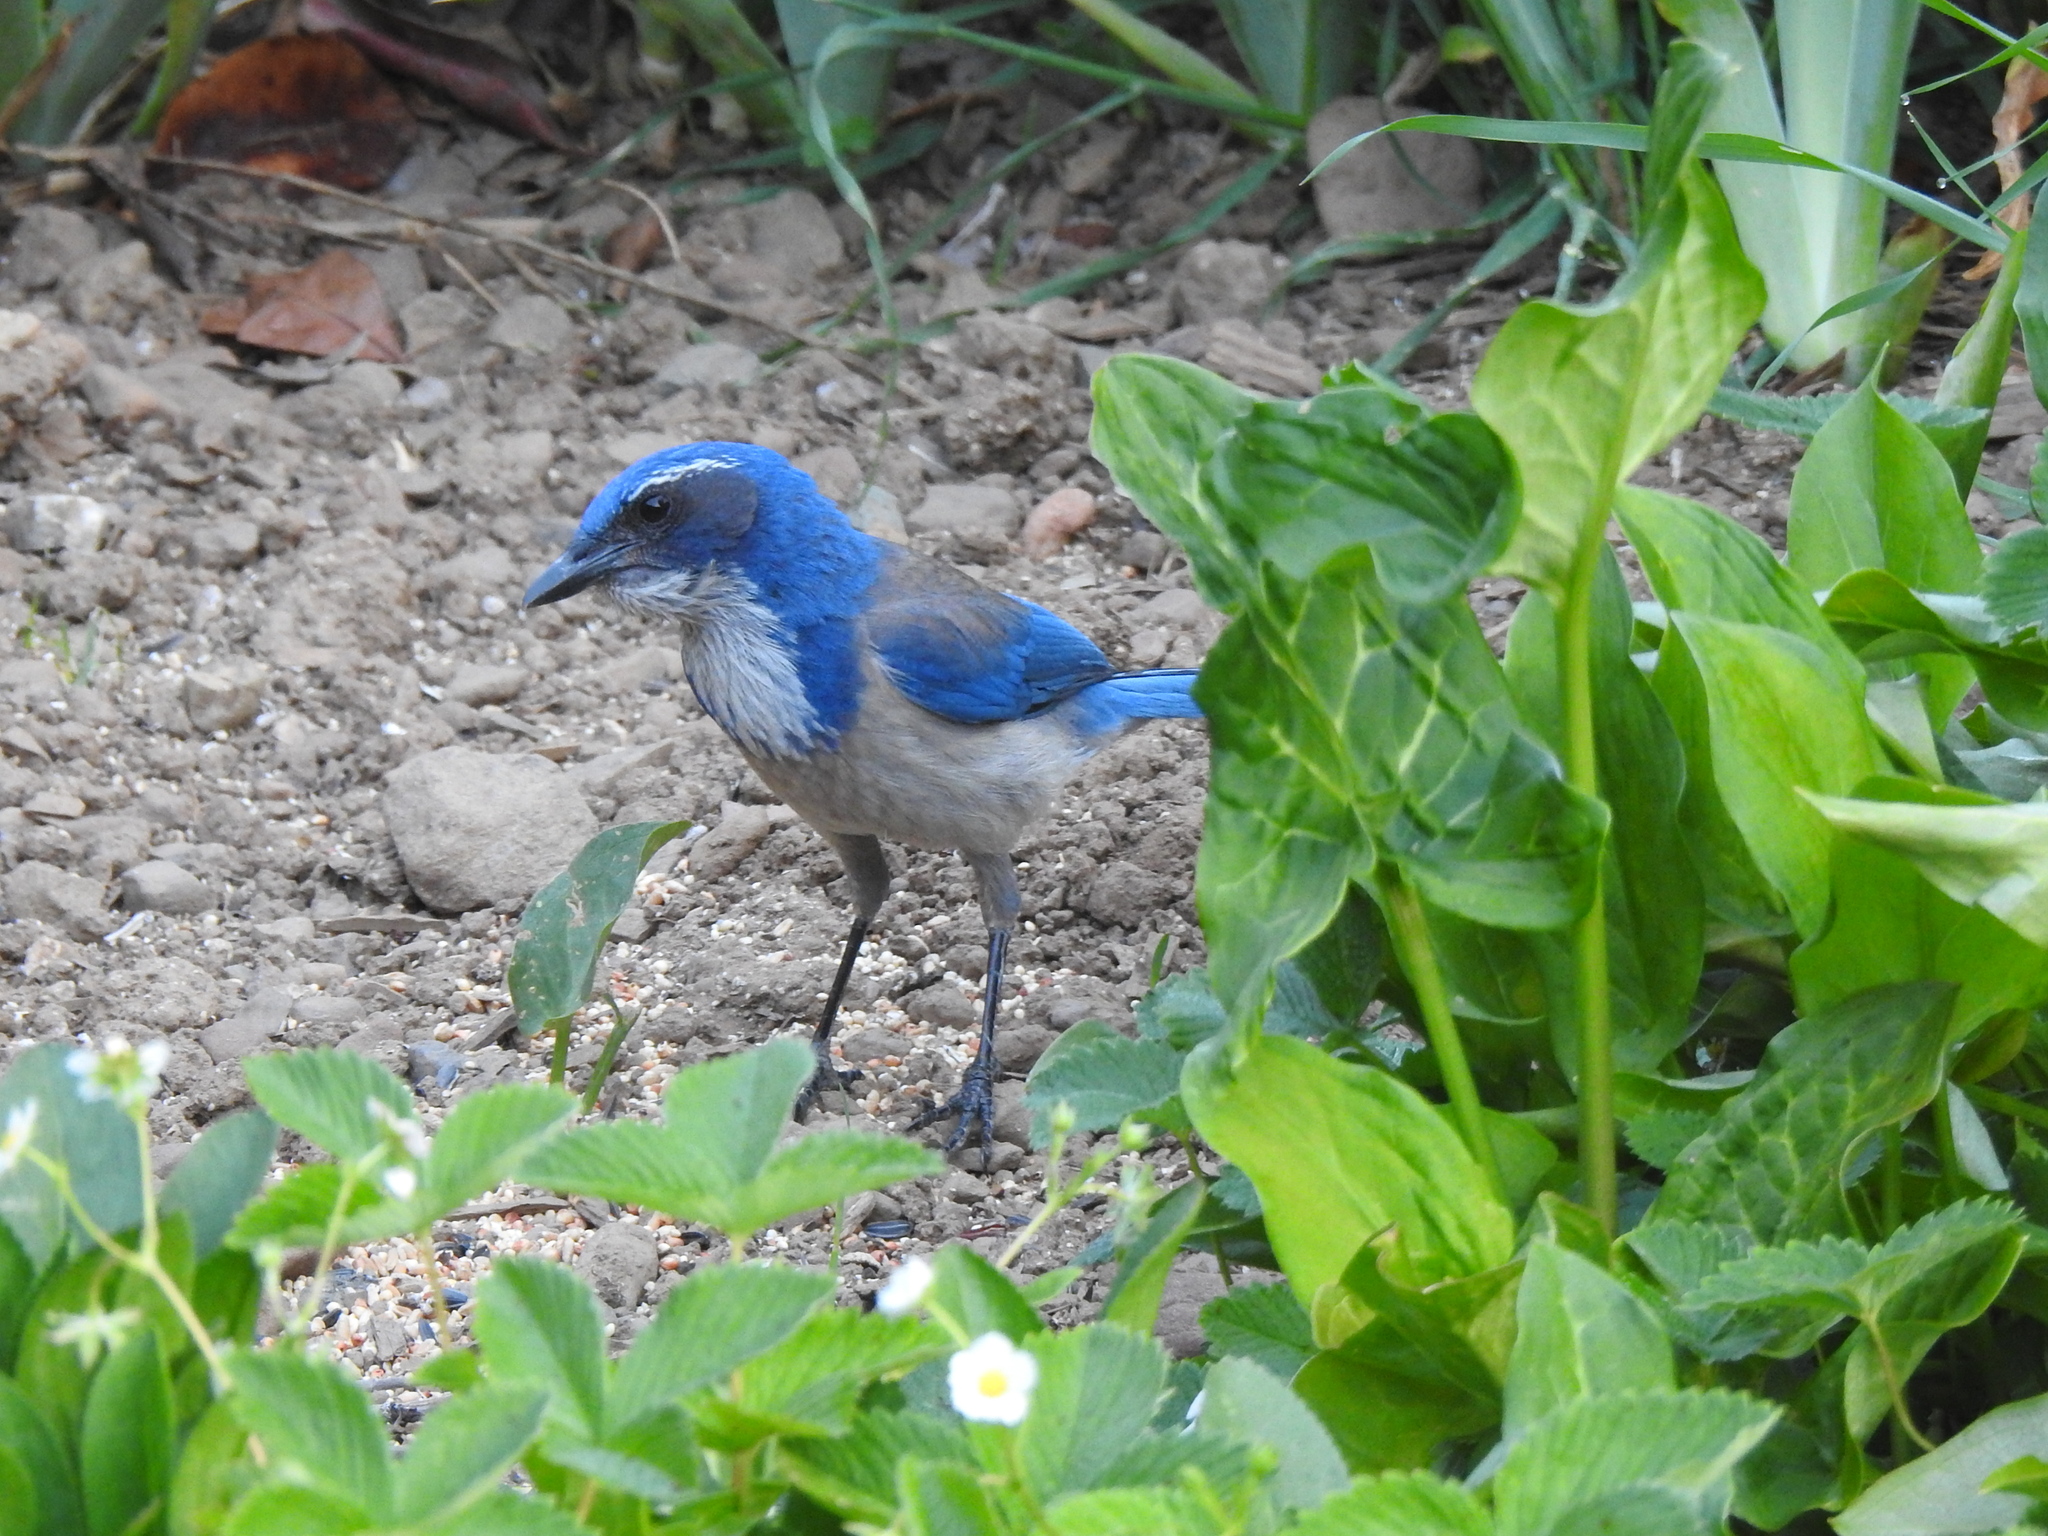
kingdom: Animalia
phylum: Chordata
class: Aves
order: Passeriformes
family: Corvidae
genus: Aphelocoma
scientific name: Aphelocoma californica
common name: California scrub-jay
